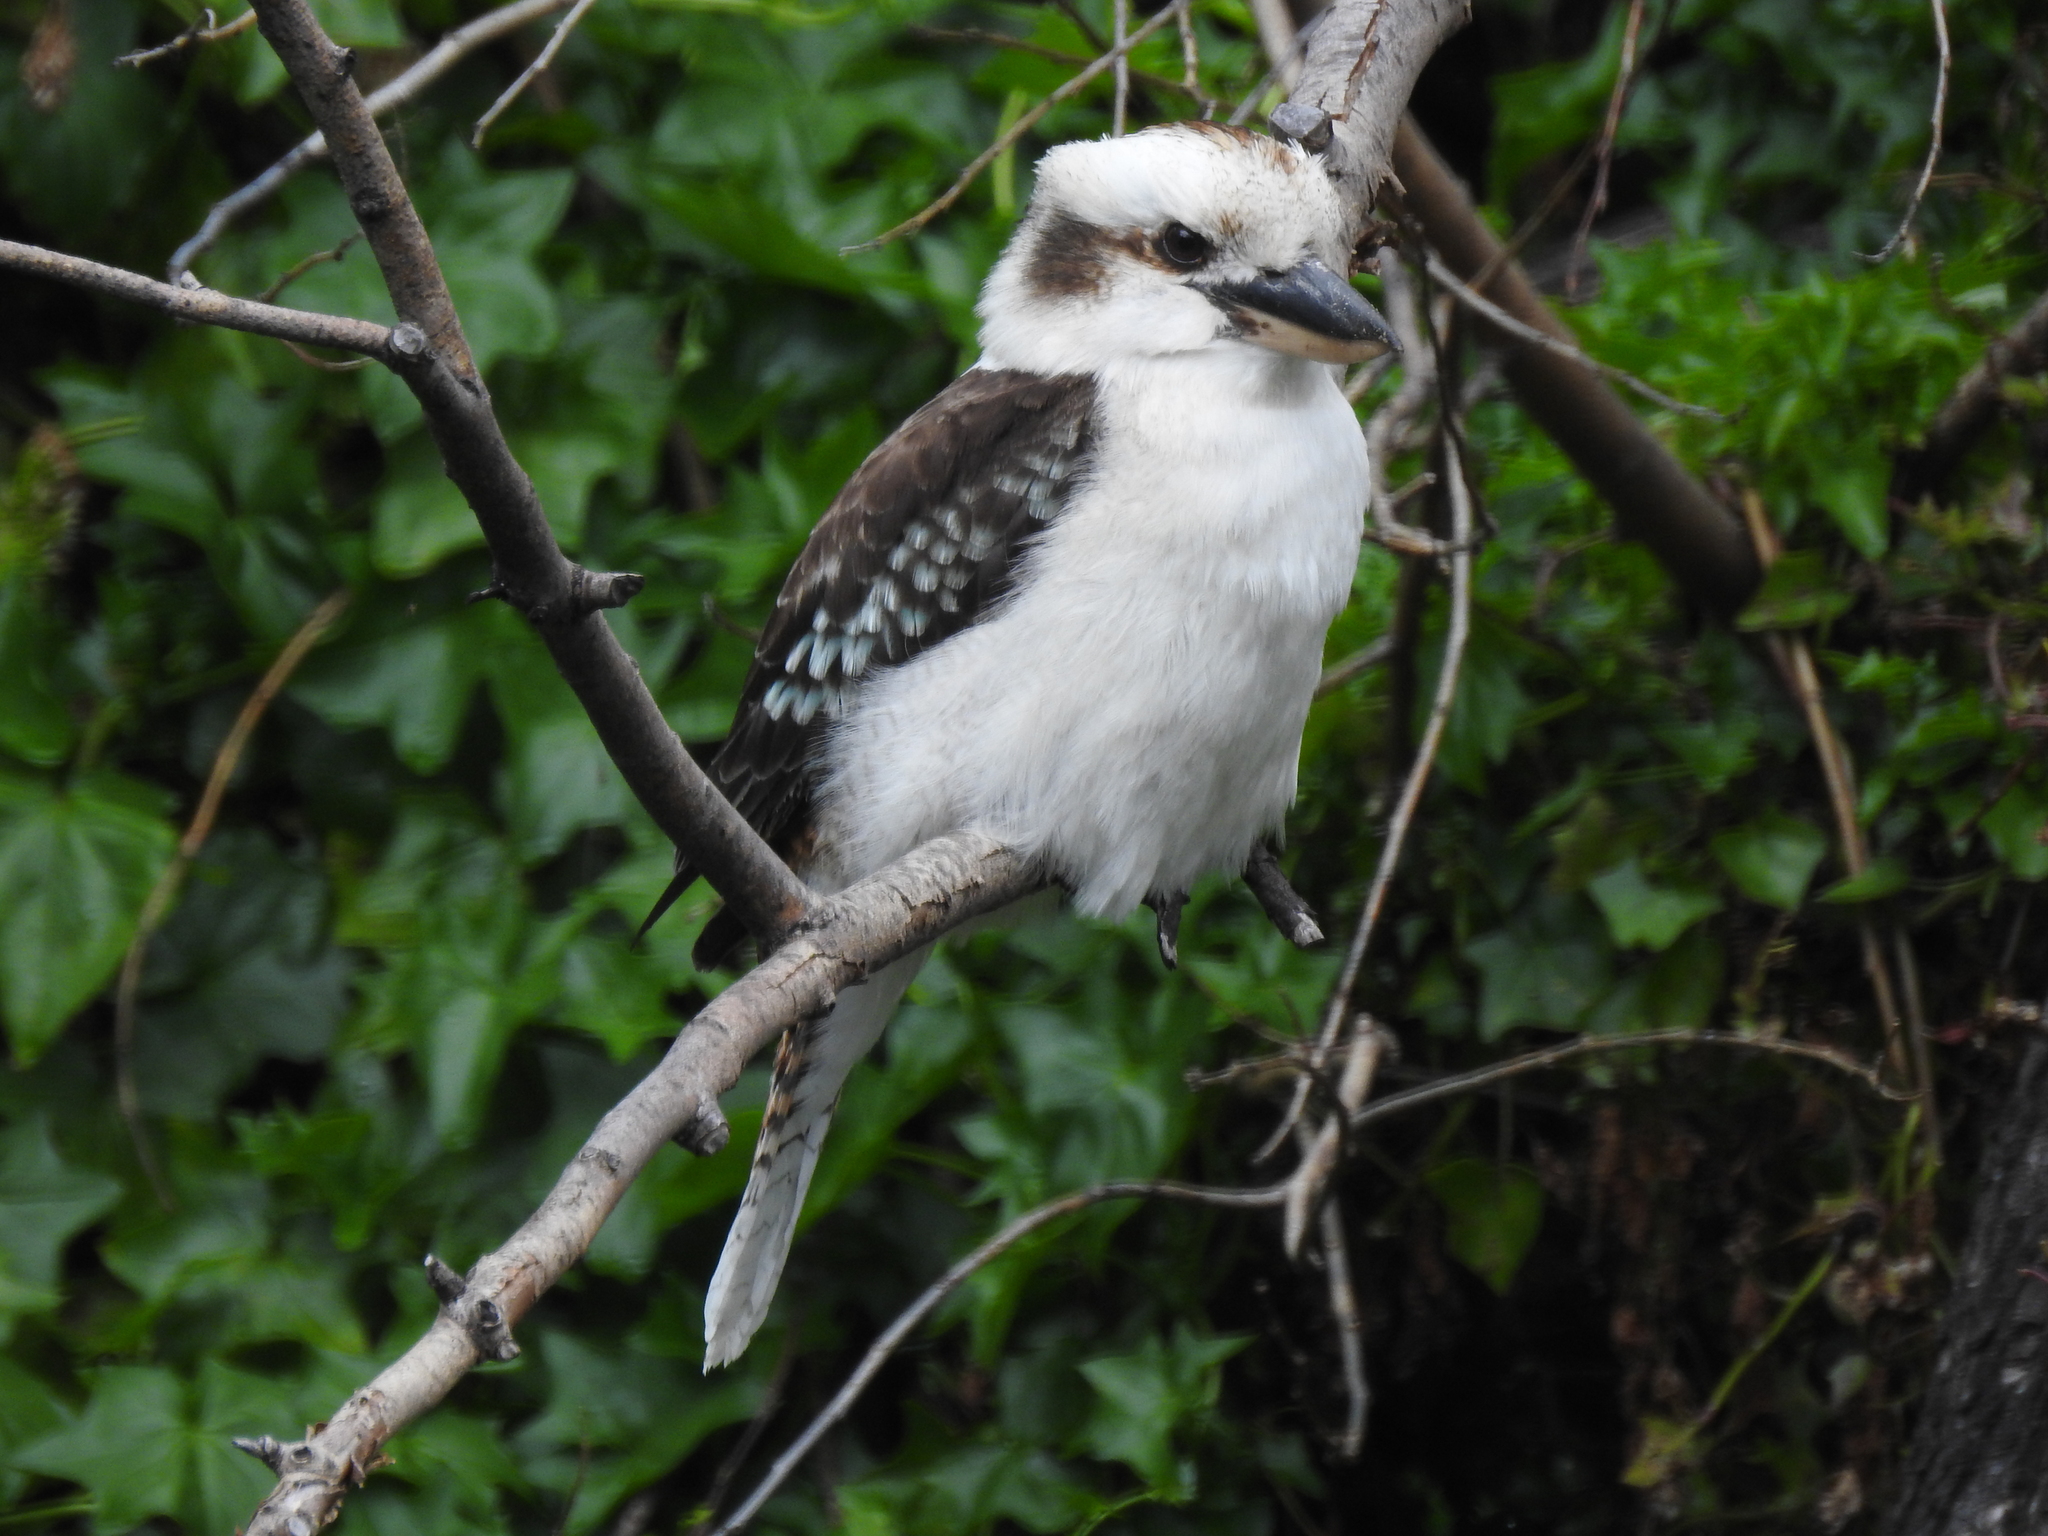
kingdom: Animalia
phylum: Chordata
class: Aves
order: Coraciiformes
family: Alcedinidae
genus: Dacelo
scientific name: Dacelo novaeguineae
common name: Laughing kookaburra
